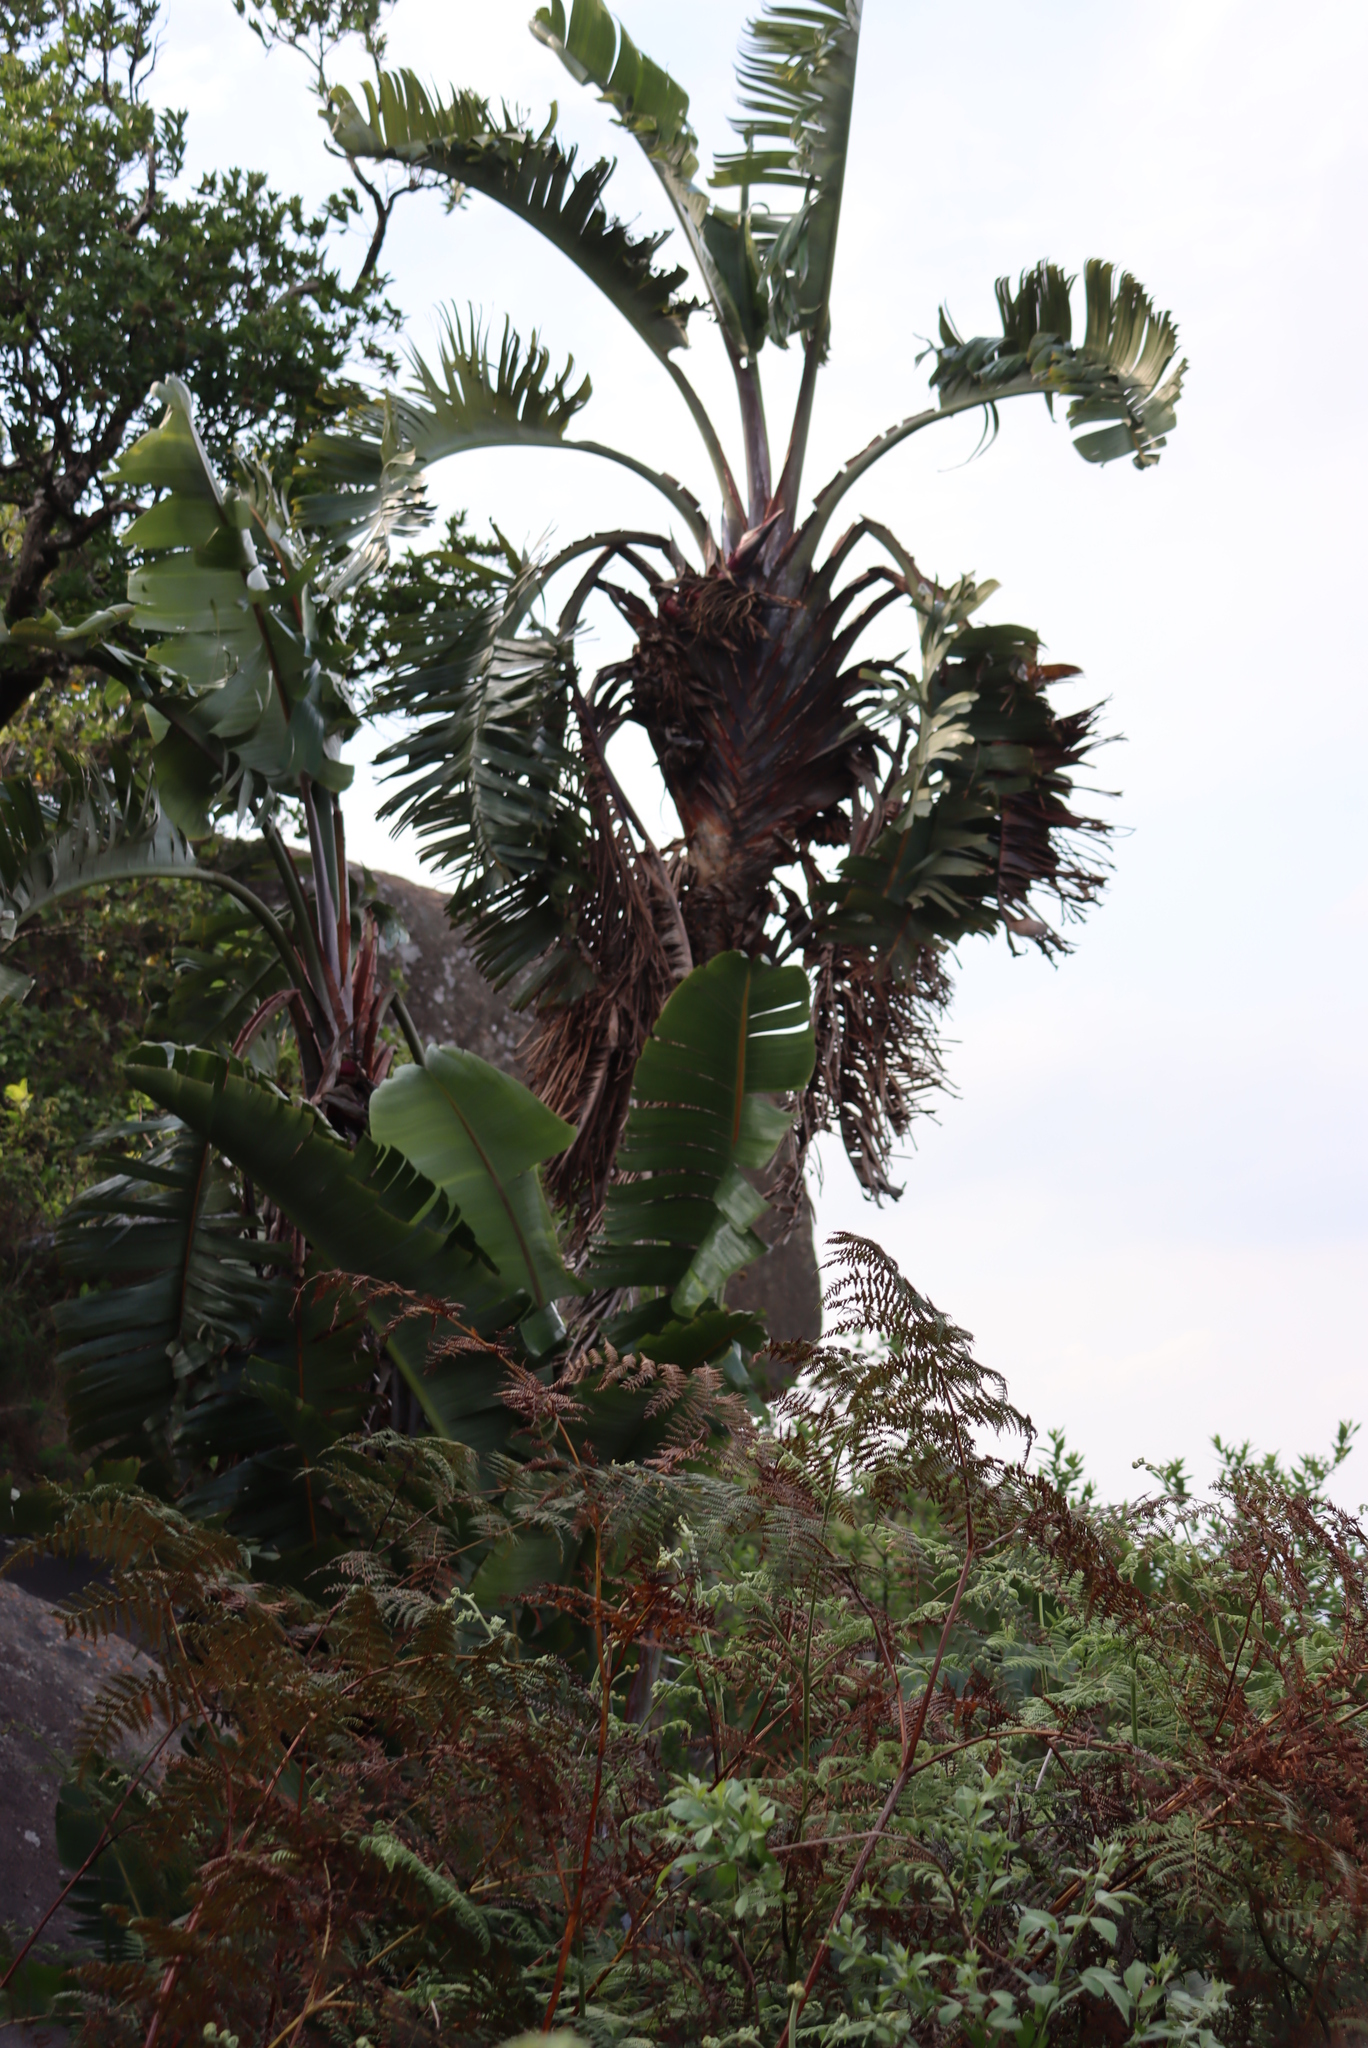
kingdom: Plantae
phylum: Tracheophyta
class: Liliopsida
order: Zingiberales
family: Strelitziaceae
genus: Strelitzia
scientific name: Strelitzia caudata
